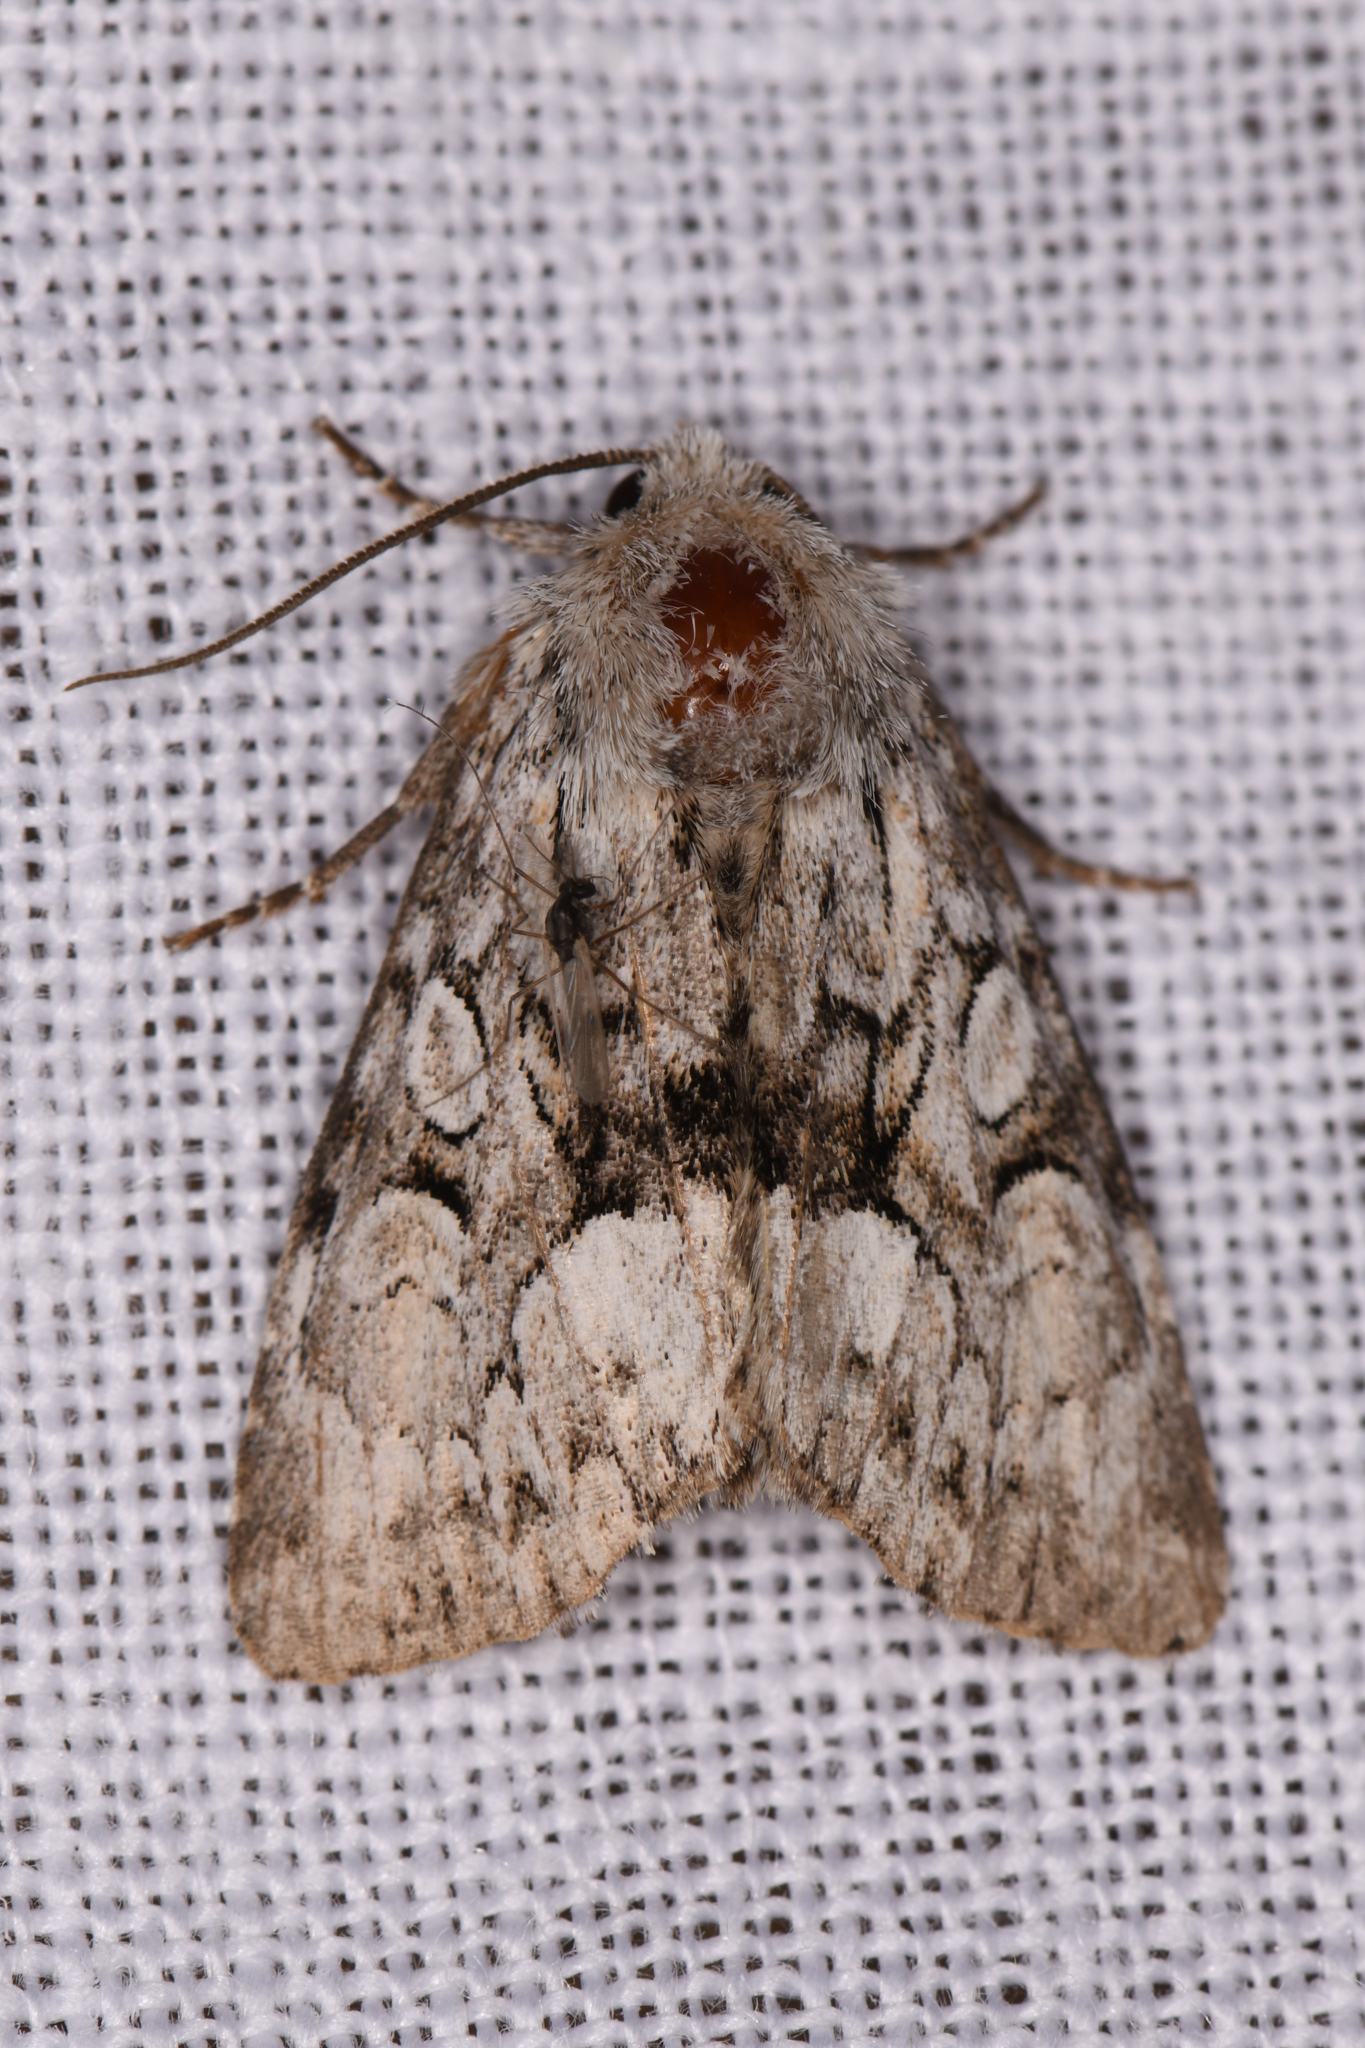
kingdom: Animalia
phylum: Arthropoda
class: Insecta
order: Lepidoptera
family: Noctuidae
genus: Eremobina
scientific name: Eremobina claudens
